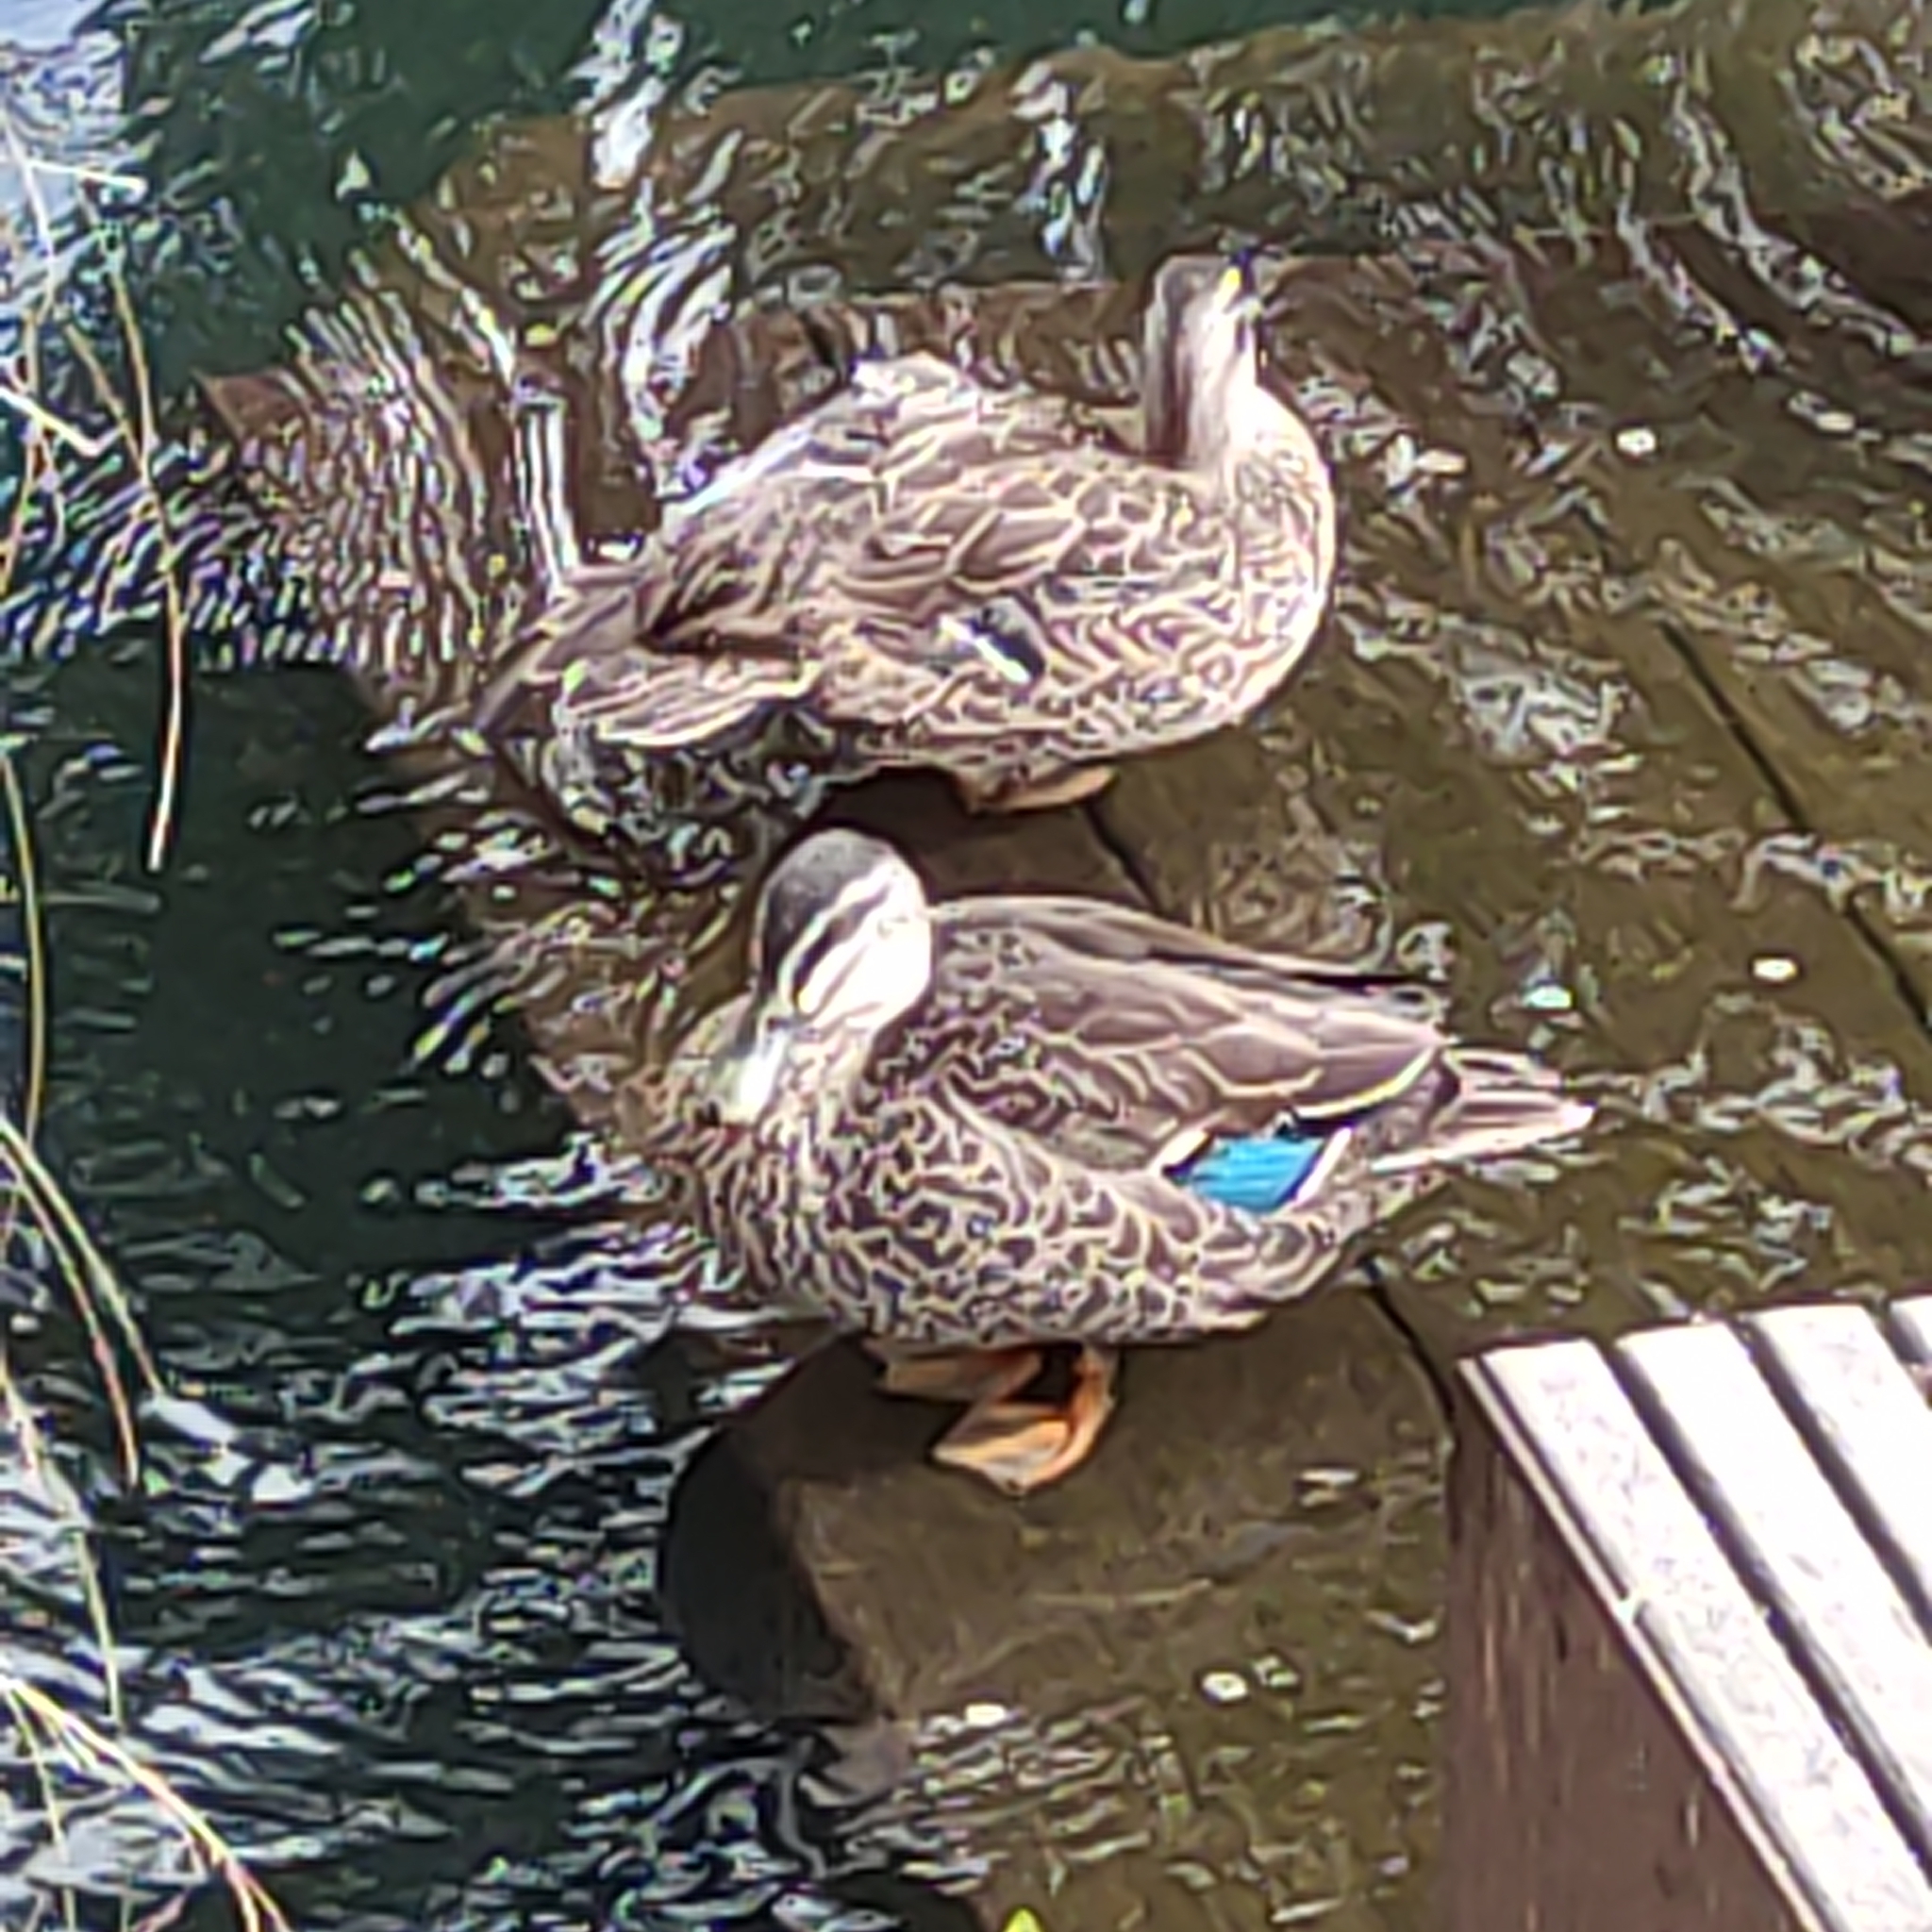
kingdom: Animalia
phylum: Chordata
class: Aves
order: Anseriformes
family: Anatidae
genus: Anas
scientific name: Anas
